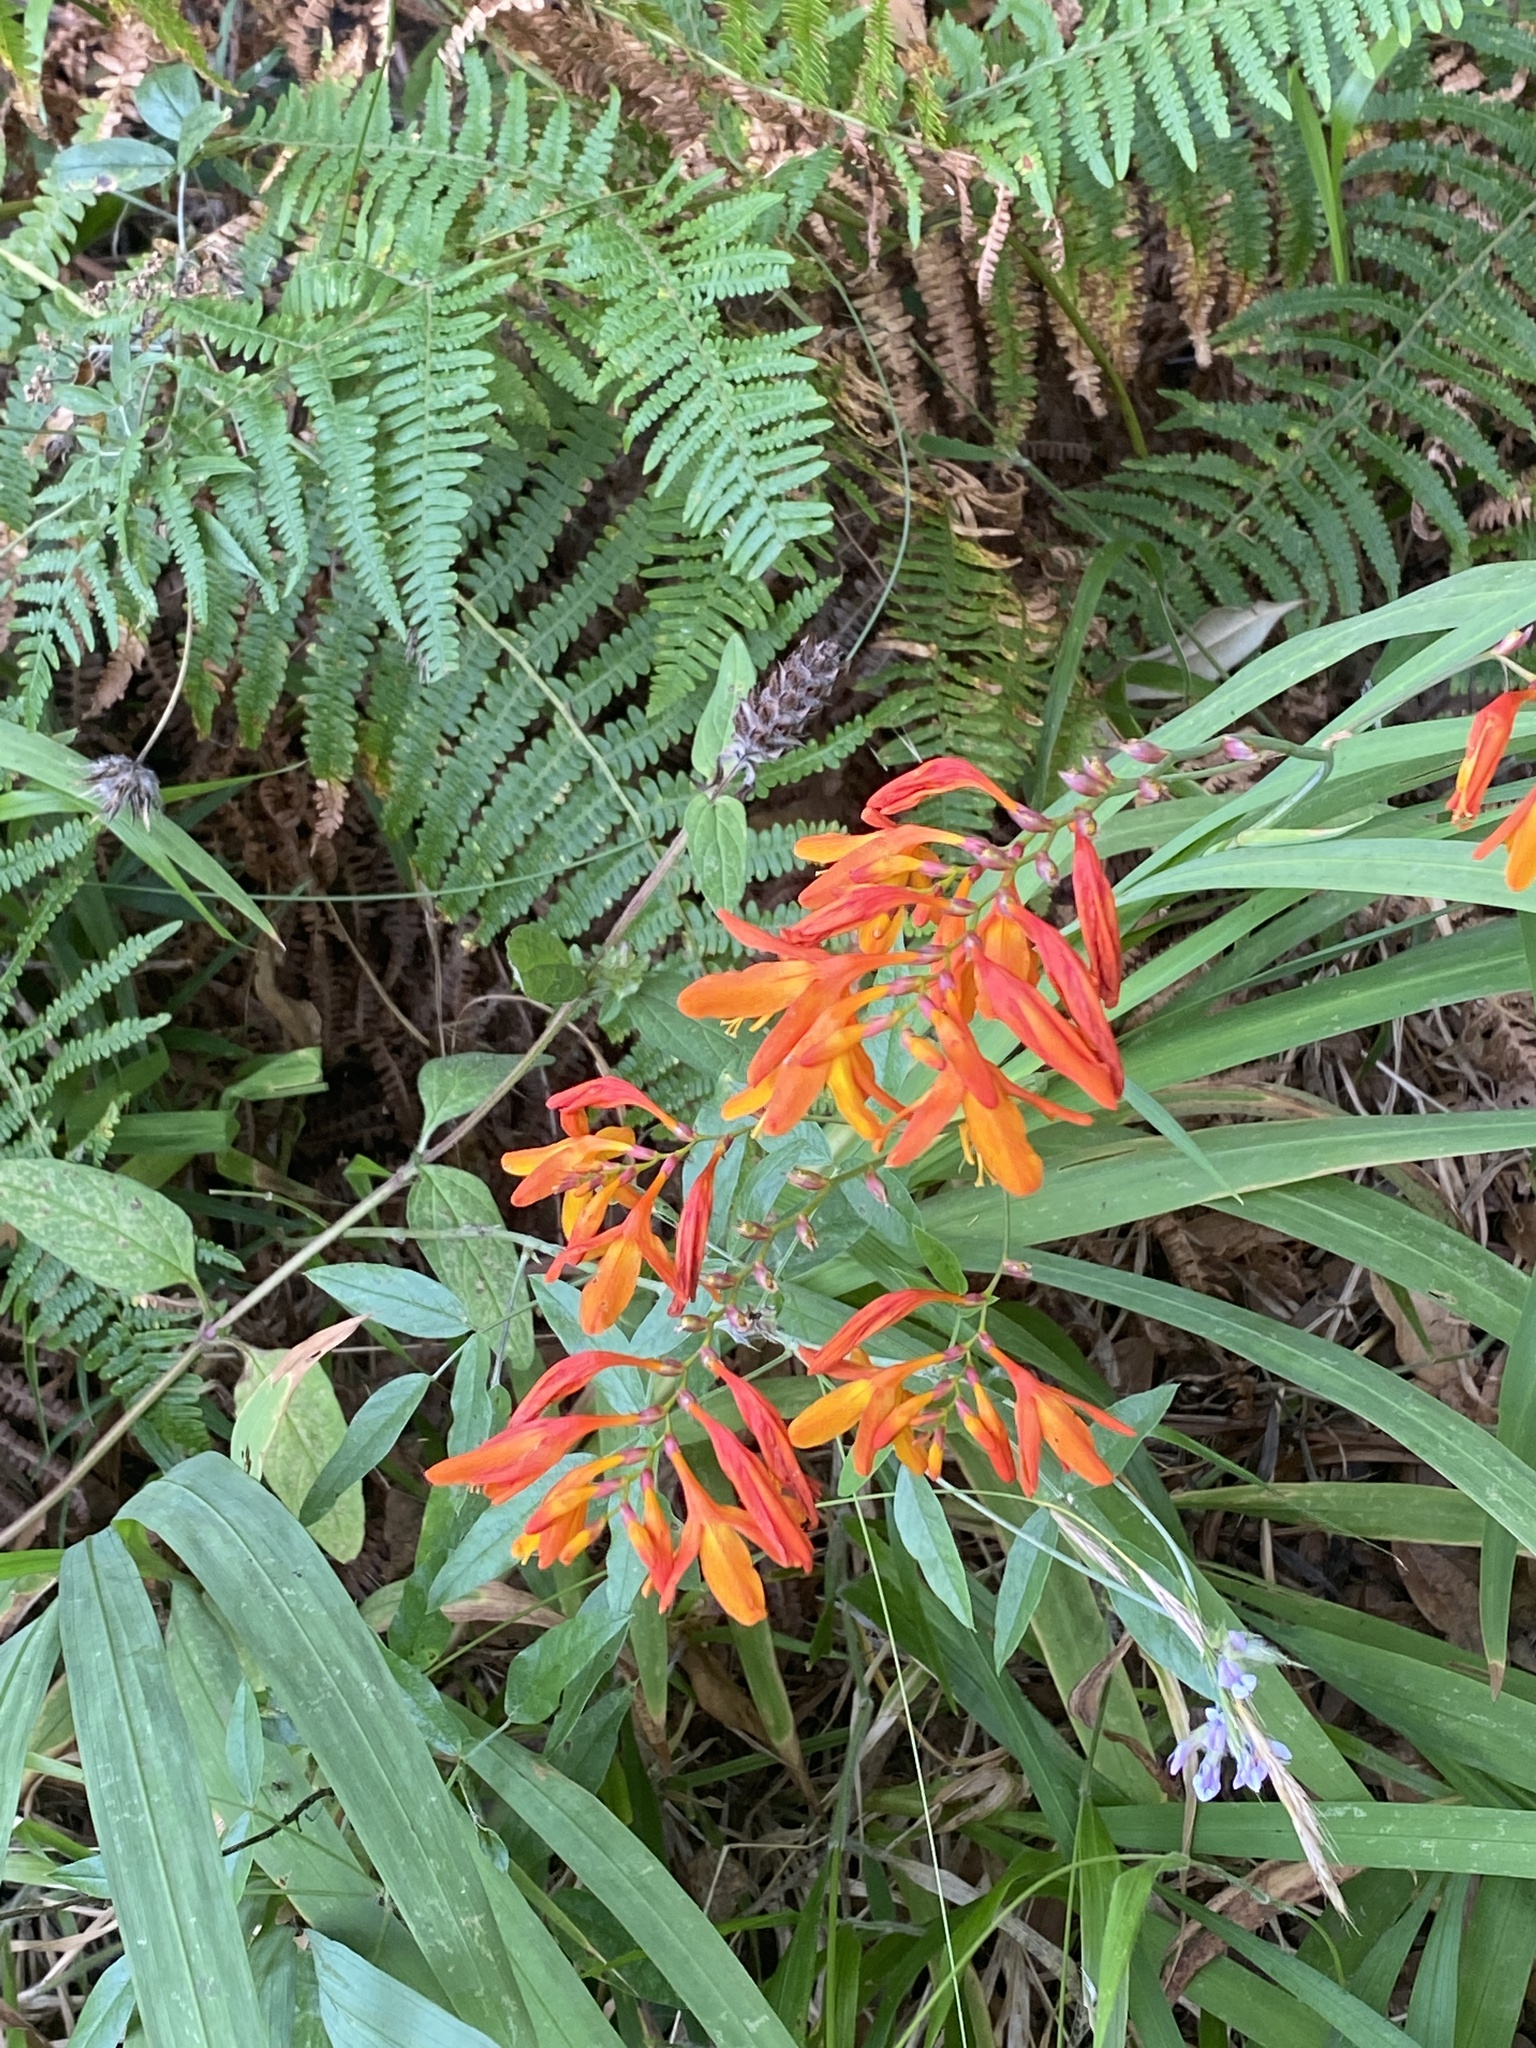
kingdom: Plantae
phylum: Tracheophyta
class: Liliopsida
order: Asparagales
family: Iridaceae
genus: Crocosmia
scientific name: Crocosmia crocosmiiflora
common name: Montbretia
